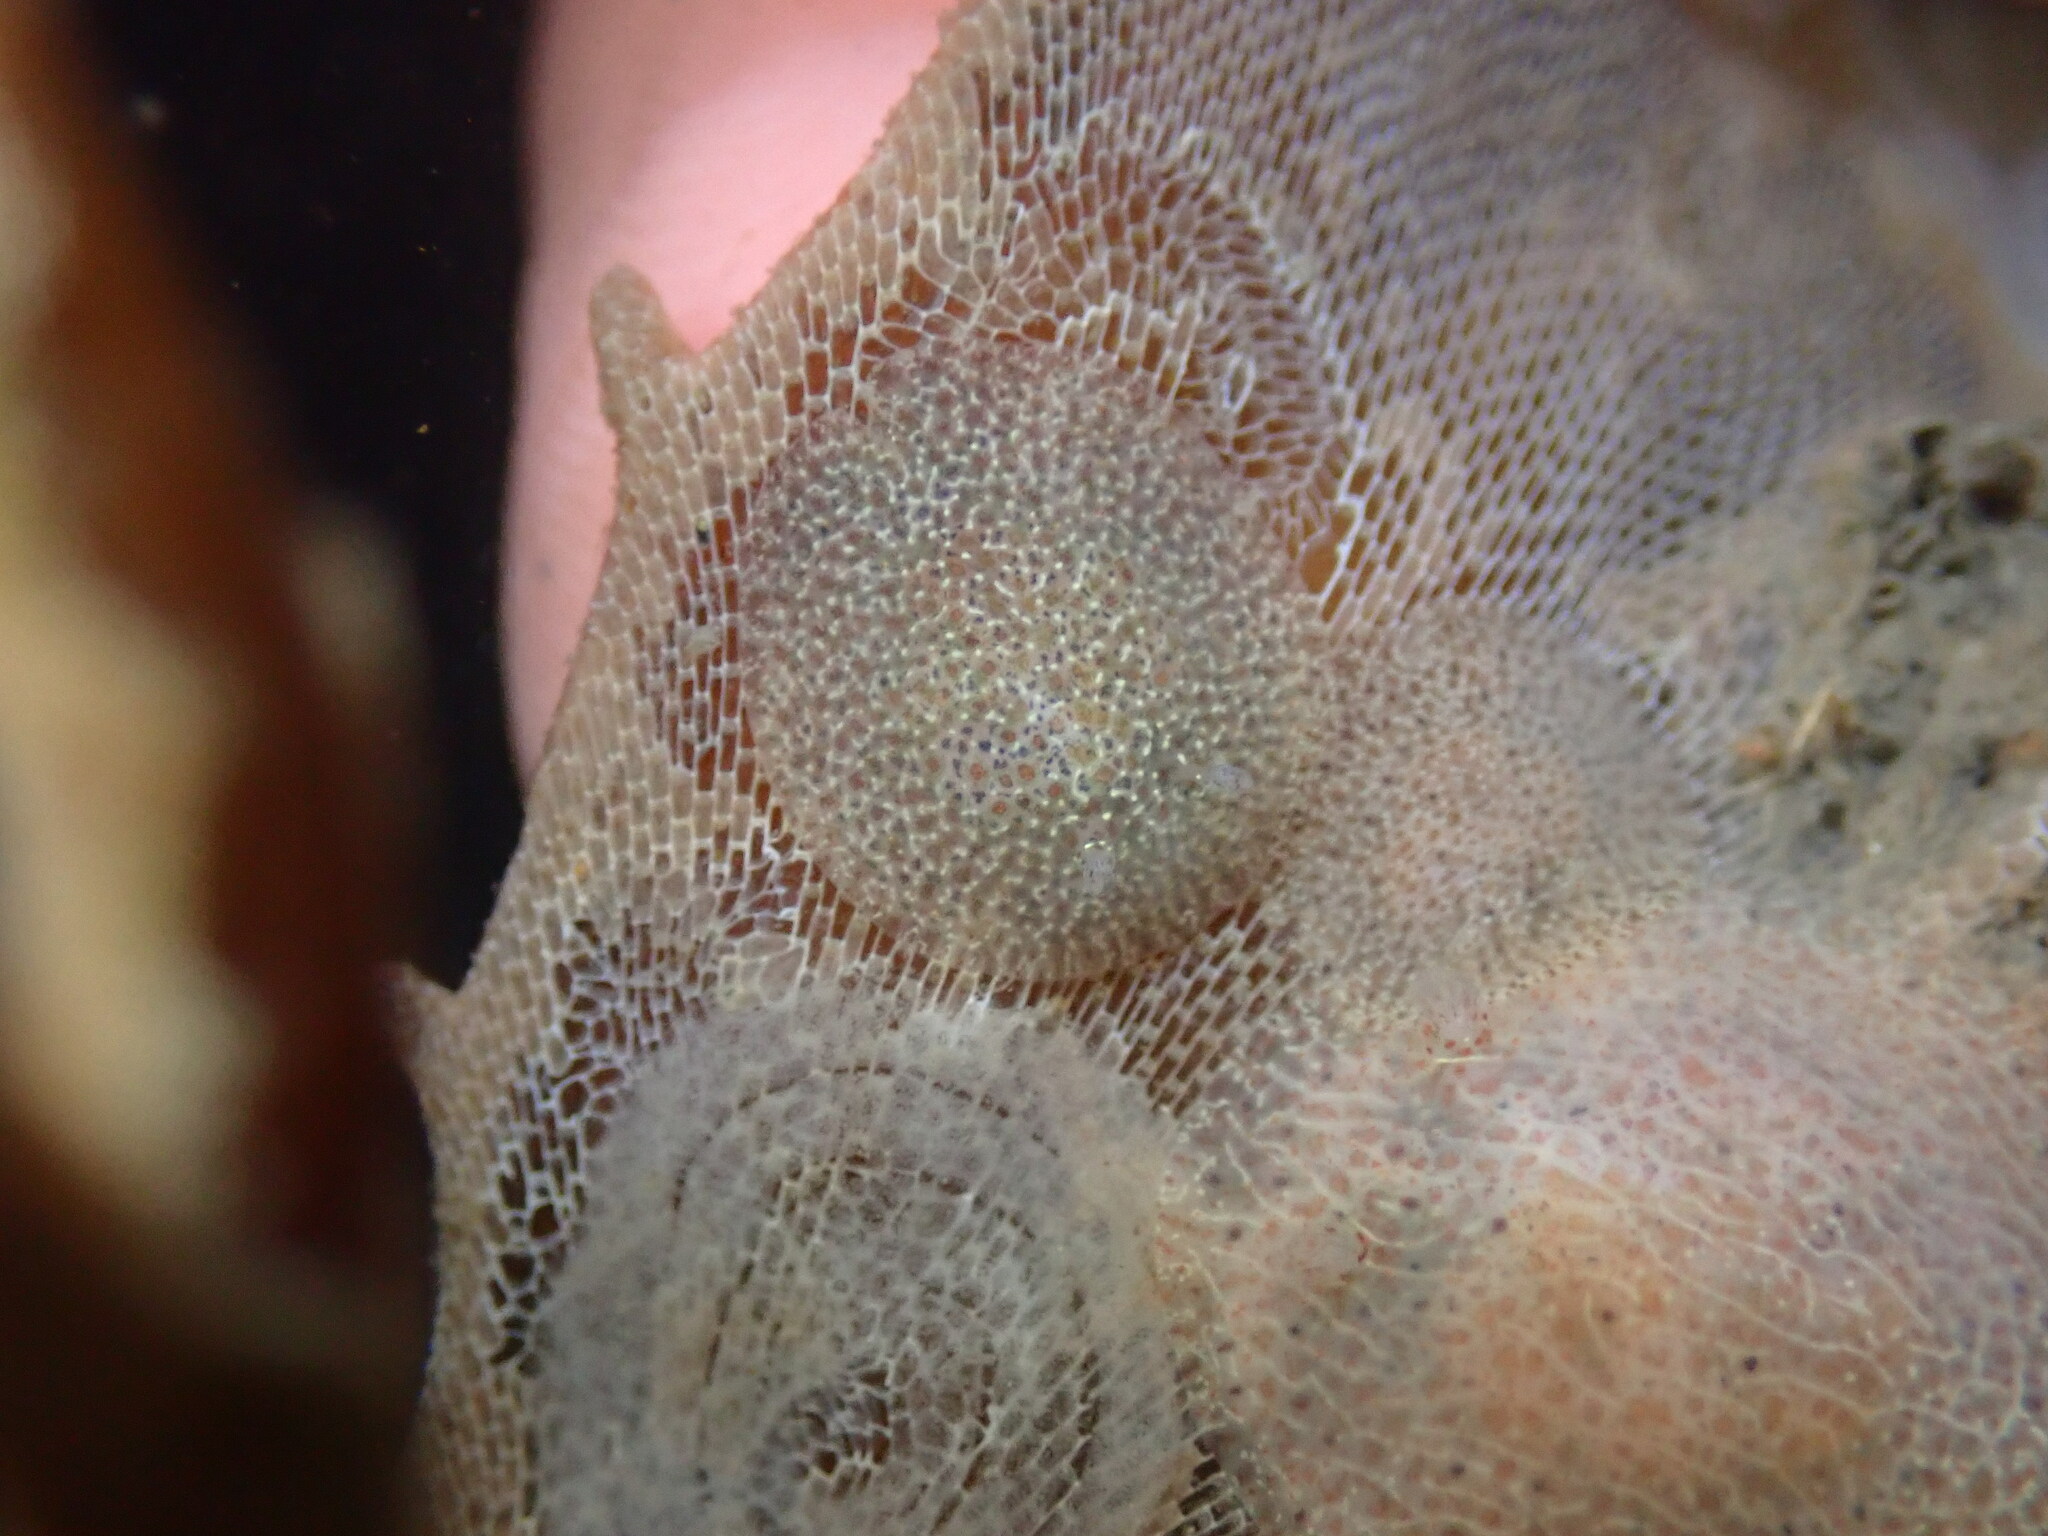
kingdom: Animalia
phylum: Mollusca
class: Gastropoda
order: Nudibranchia
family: Corambidae
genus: Corambe
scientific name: Corambe pacifica
